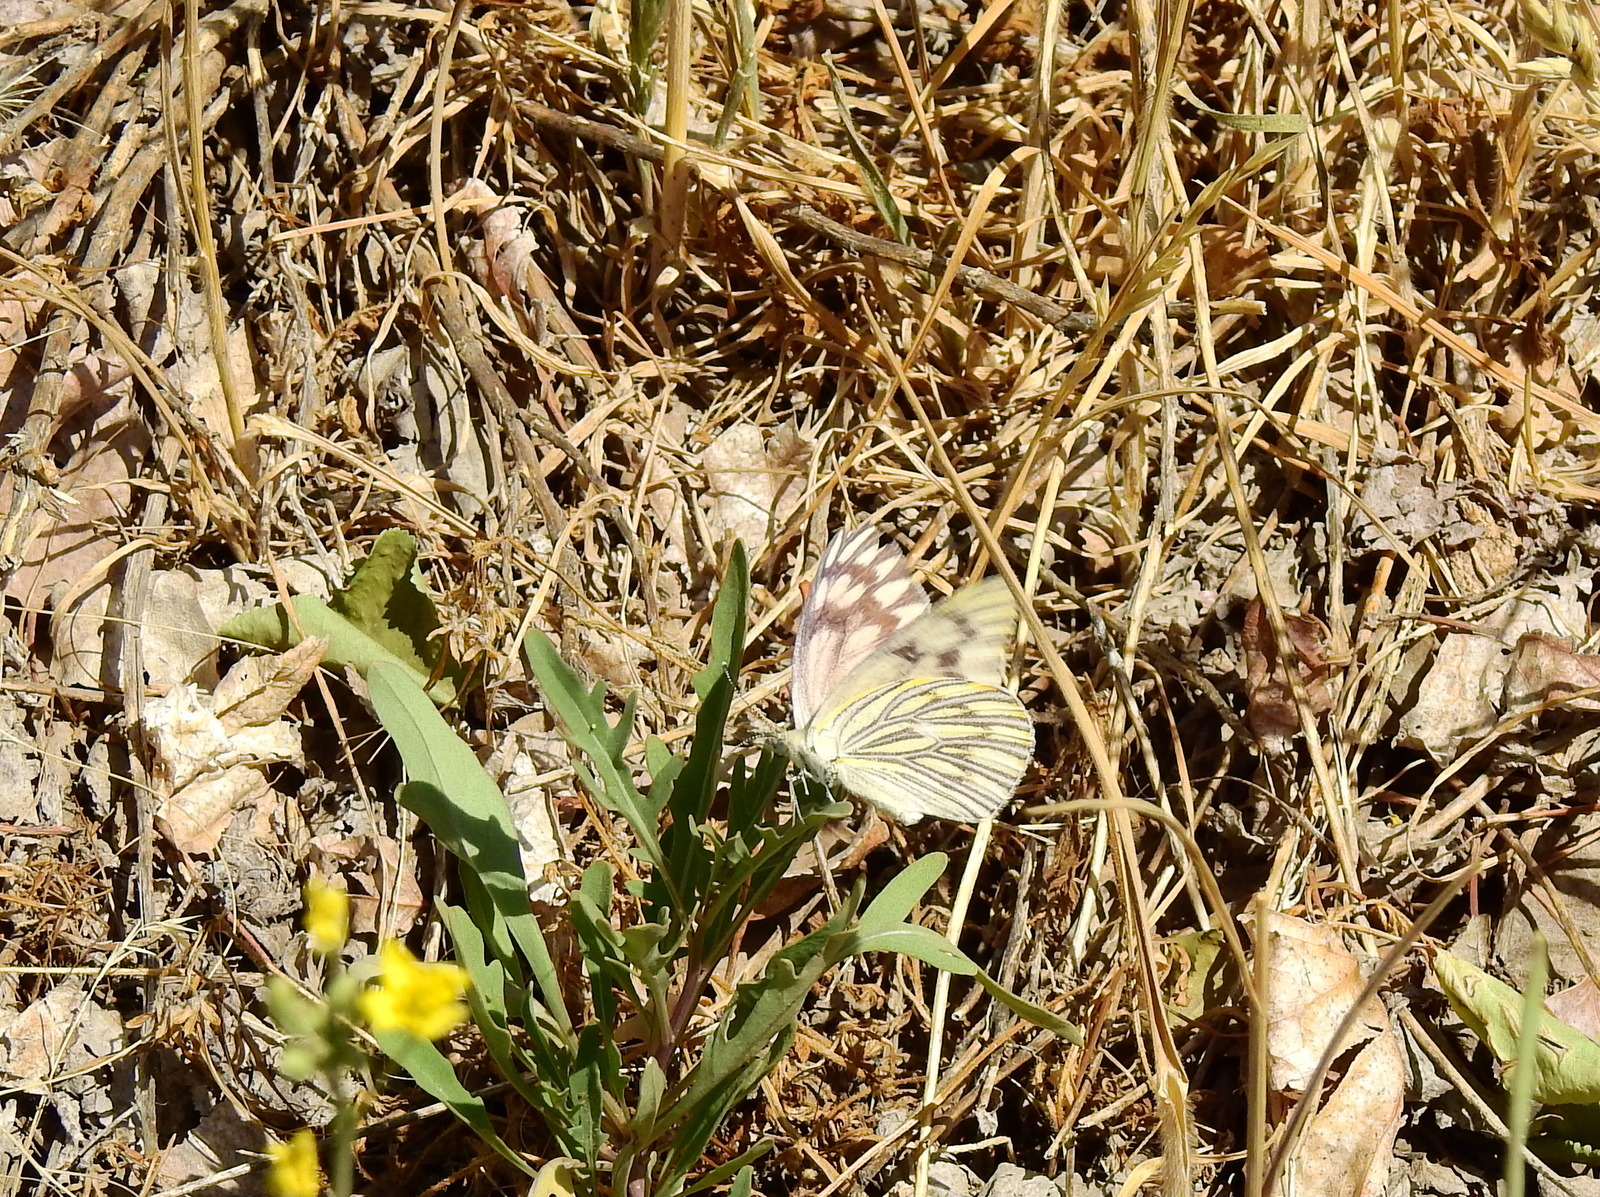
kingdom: Animalia
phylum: Arthropoda
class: Insecta
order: Lepidoptera
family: Pieridae
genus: Tatochila
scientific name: Tatochila mercedis
